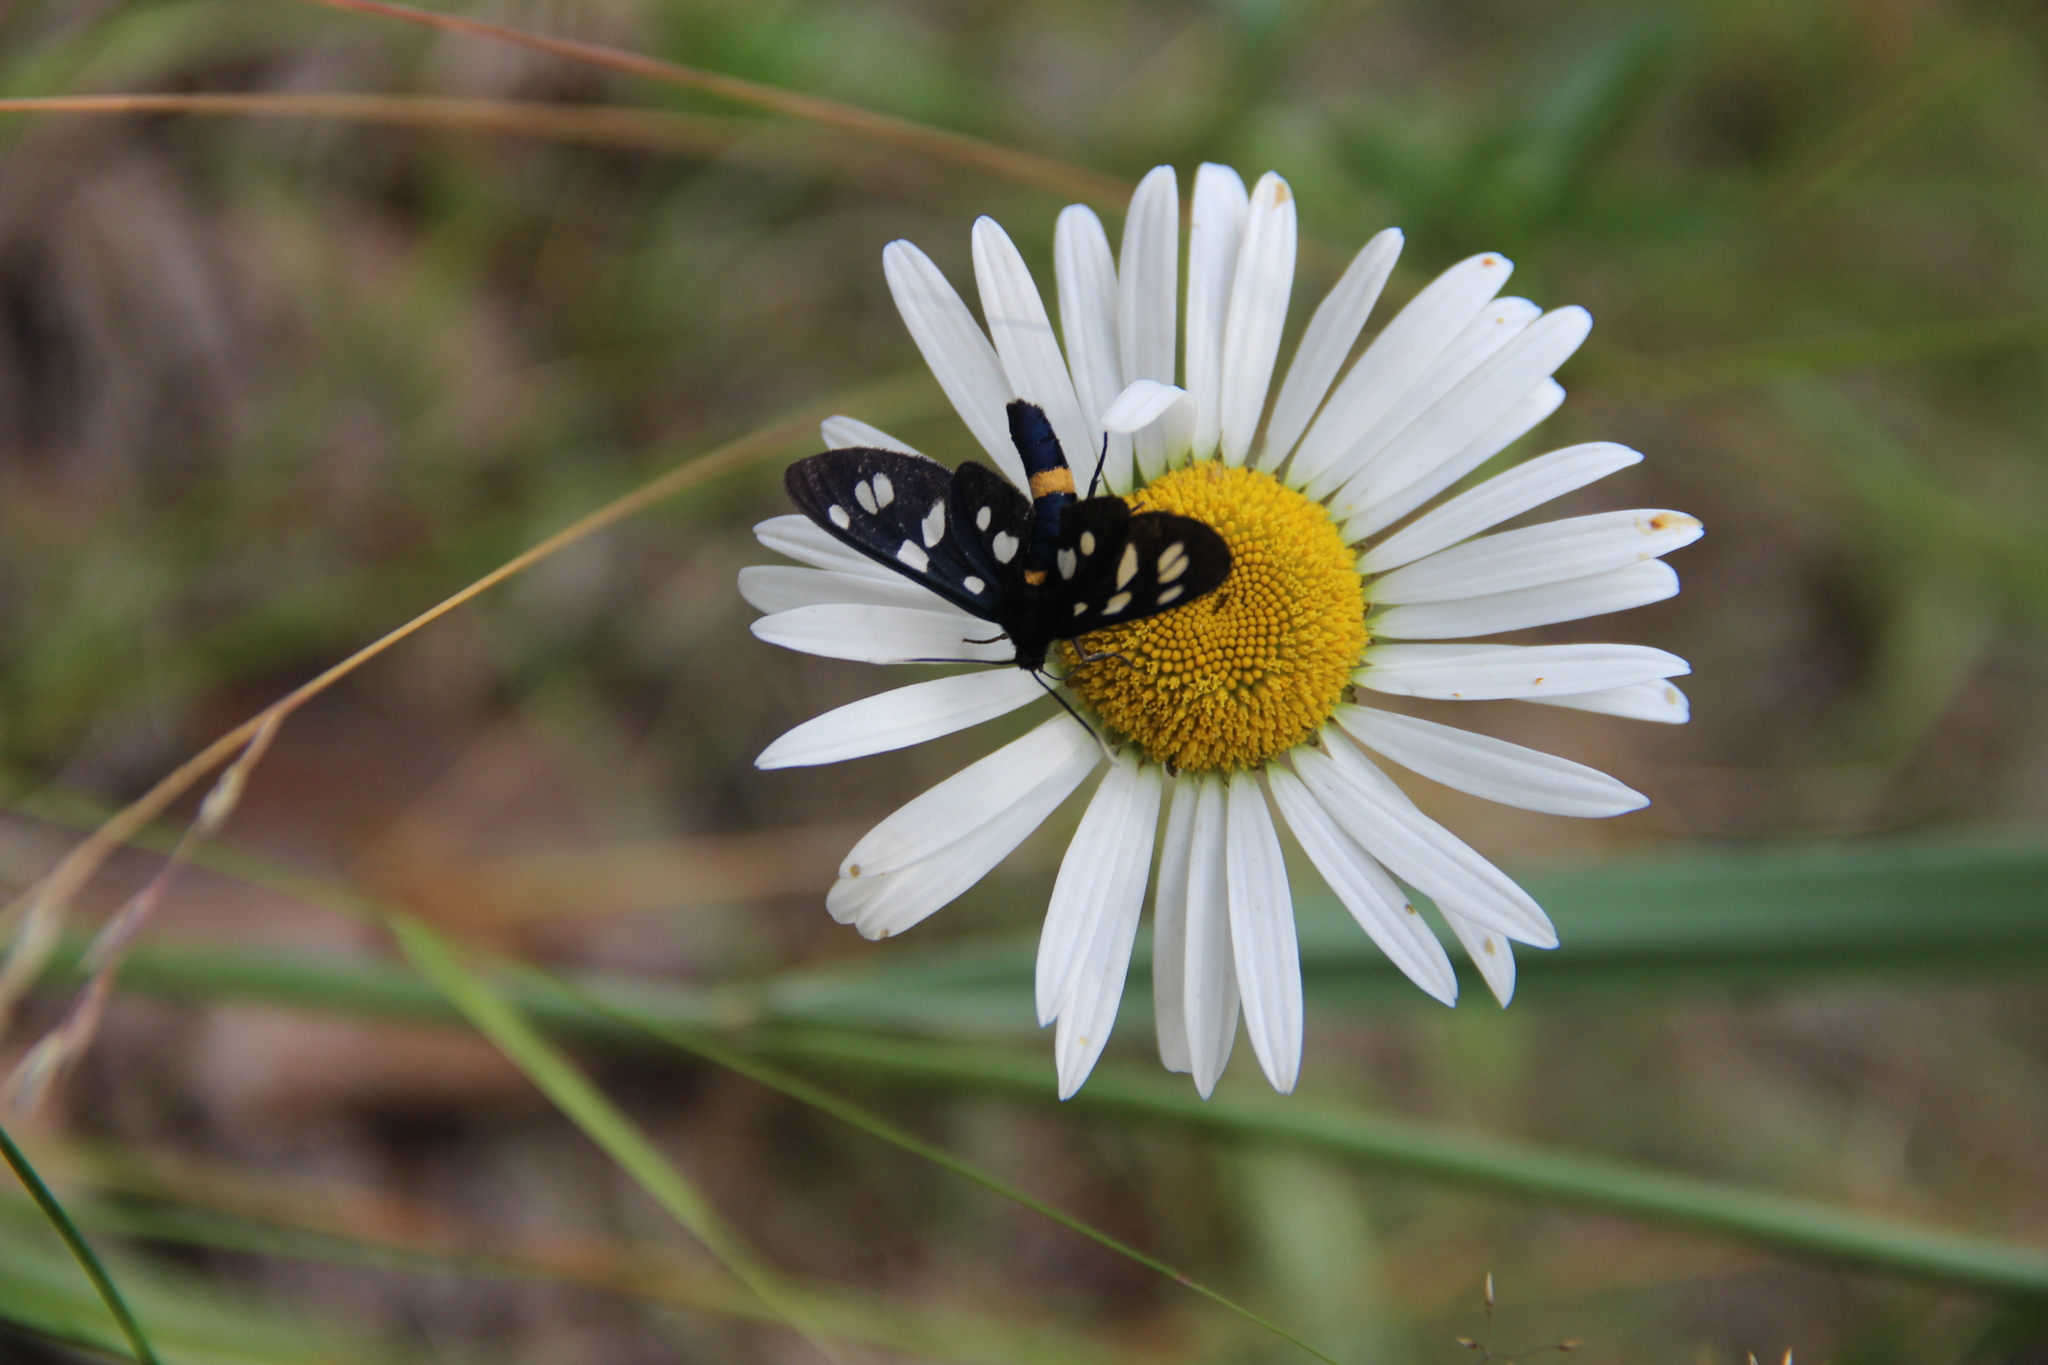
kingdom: Animalia
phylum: Arthropoda
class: Insecta
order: Lepidoptera
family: Erebidae
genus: Amata
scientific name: Amata nigricornis
